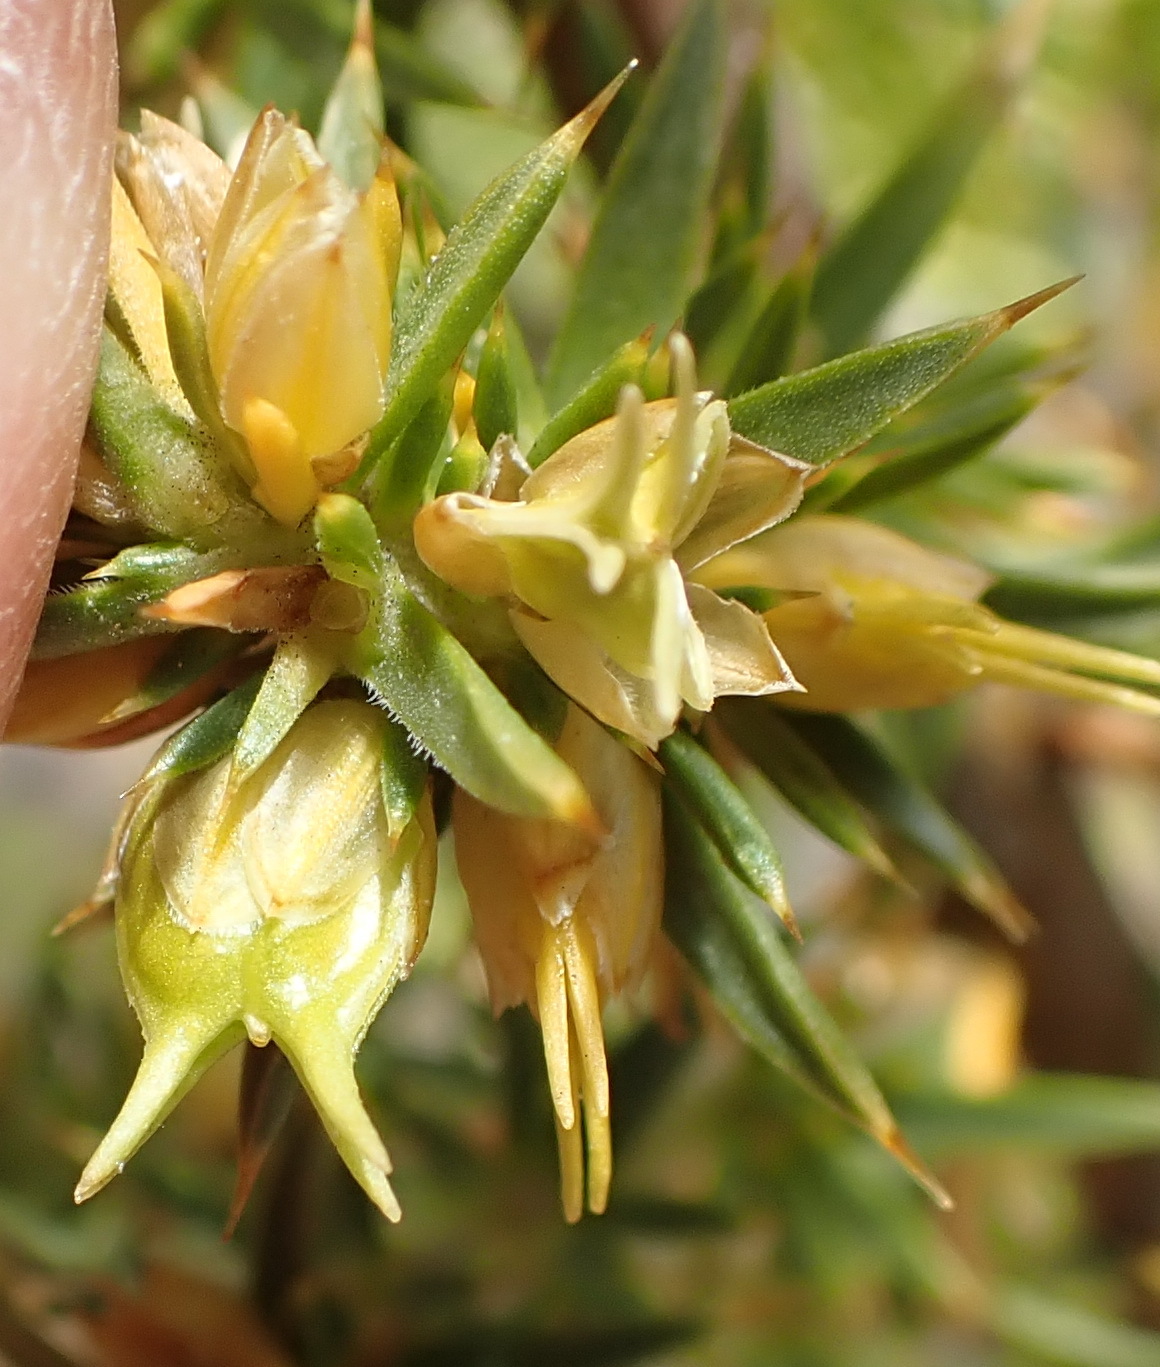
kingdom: Plantae
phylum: Tracheophyta
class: Magnoliopsida
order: Fabales
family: Polygalaceae
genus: Muraltia
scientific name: Muraltia ericifolia
